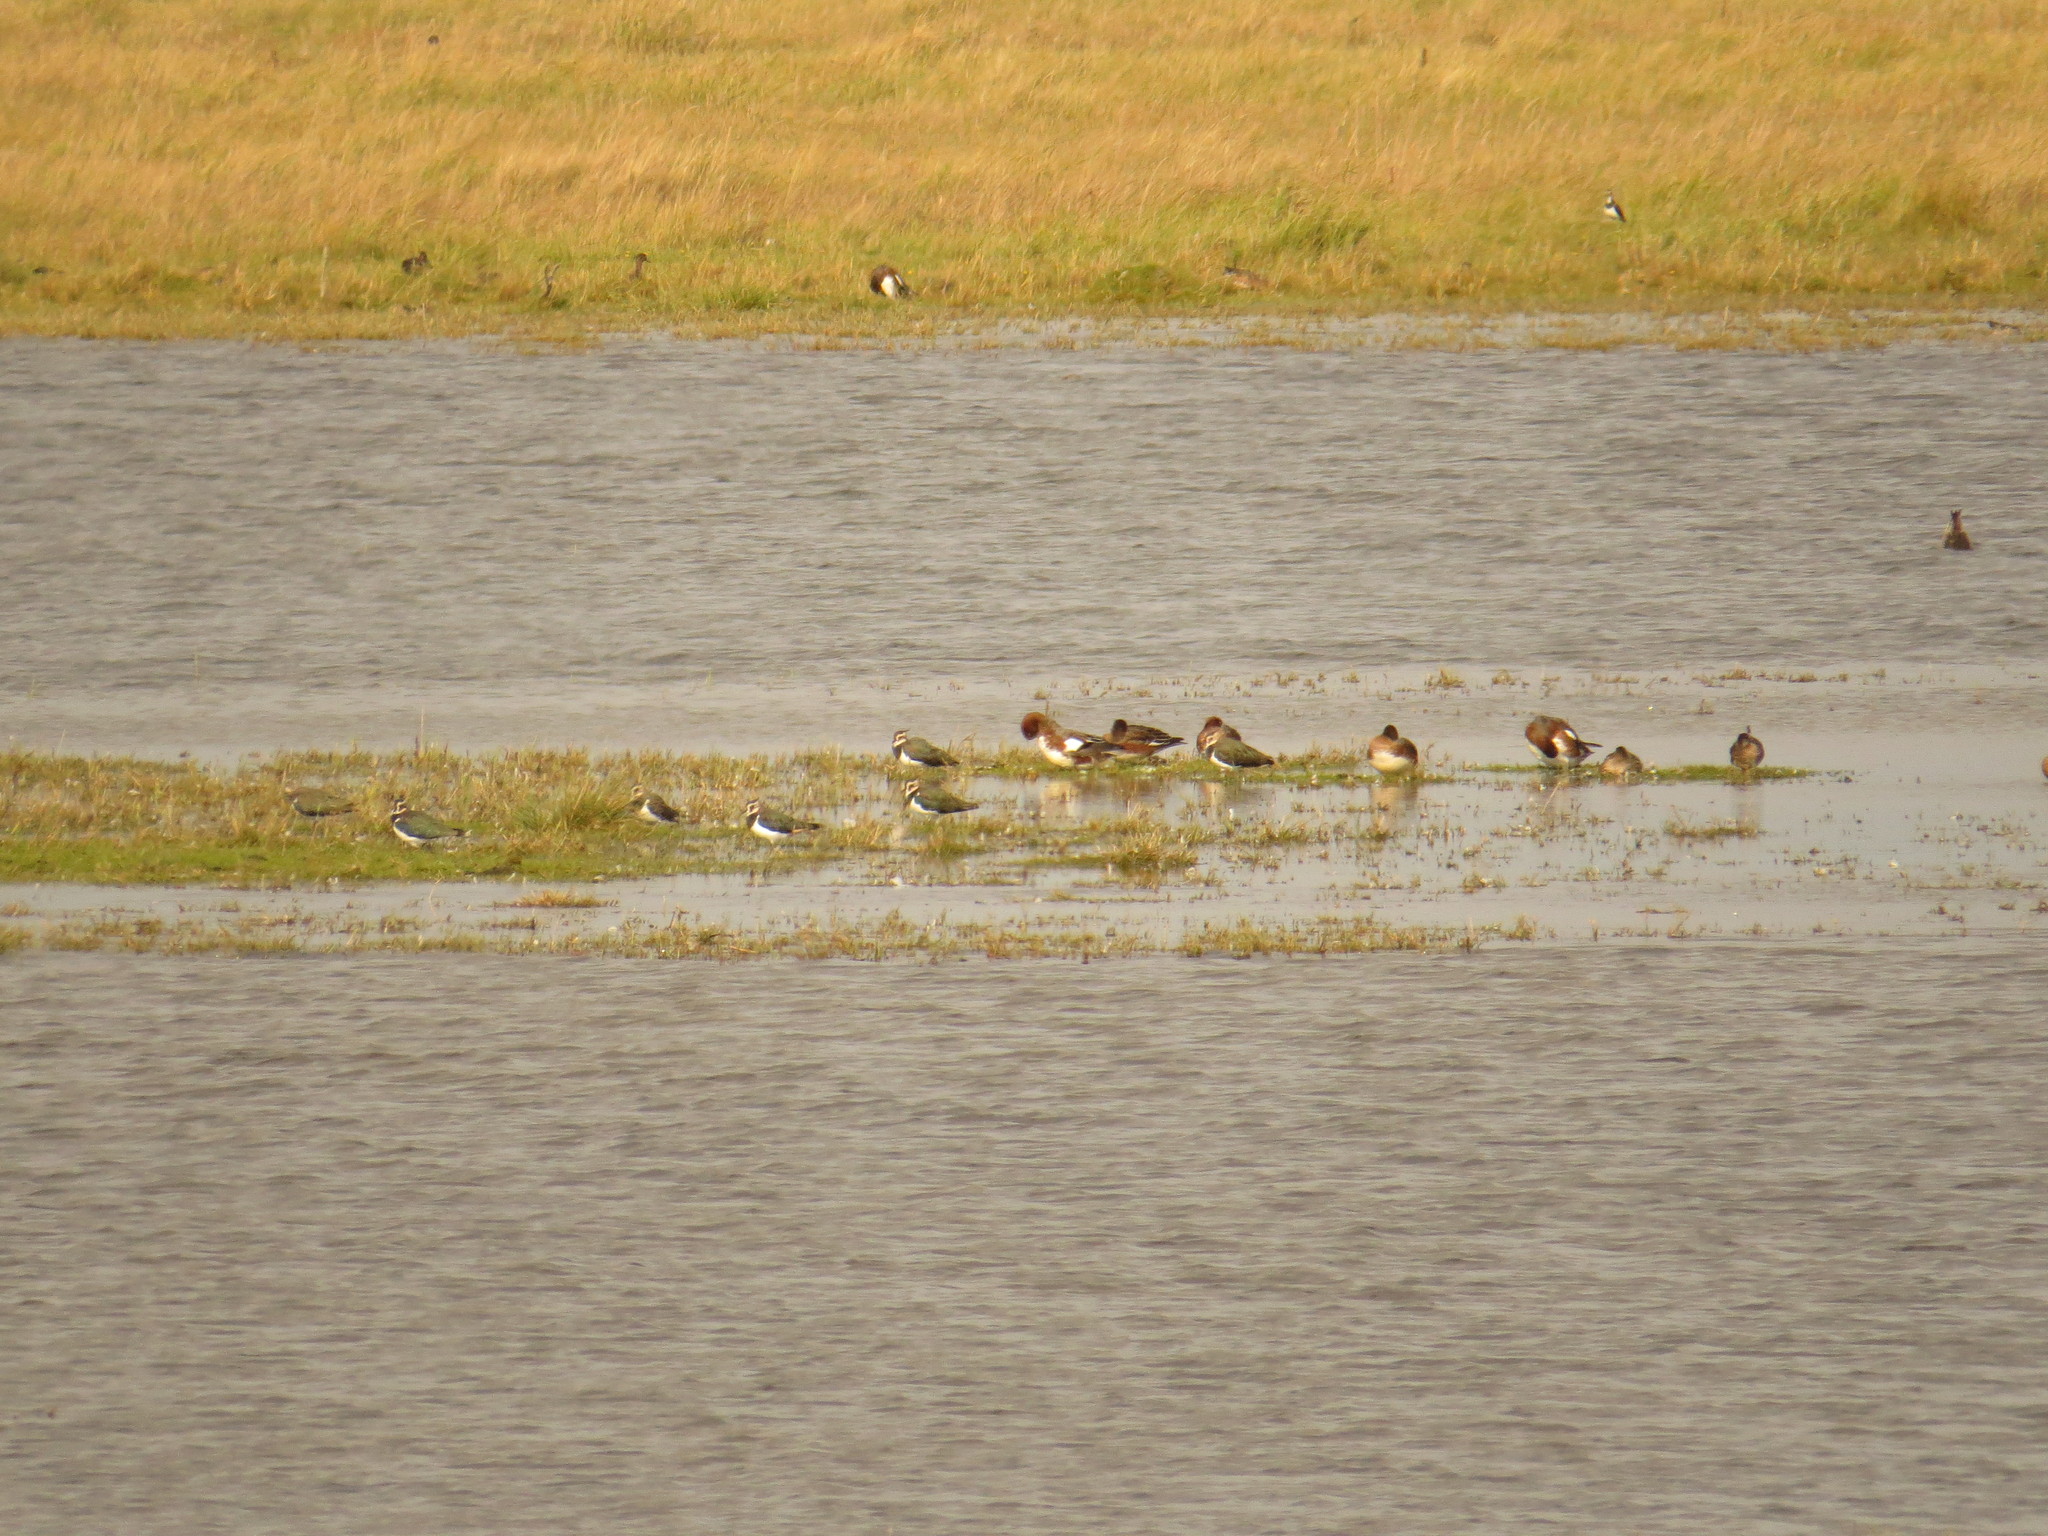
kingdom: Animalia
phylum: Chordata
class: Aves
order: Charadriiformes
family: Charadriidae
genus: Vanellus
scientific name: Vanellus vanellus
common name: Northern lapwing
